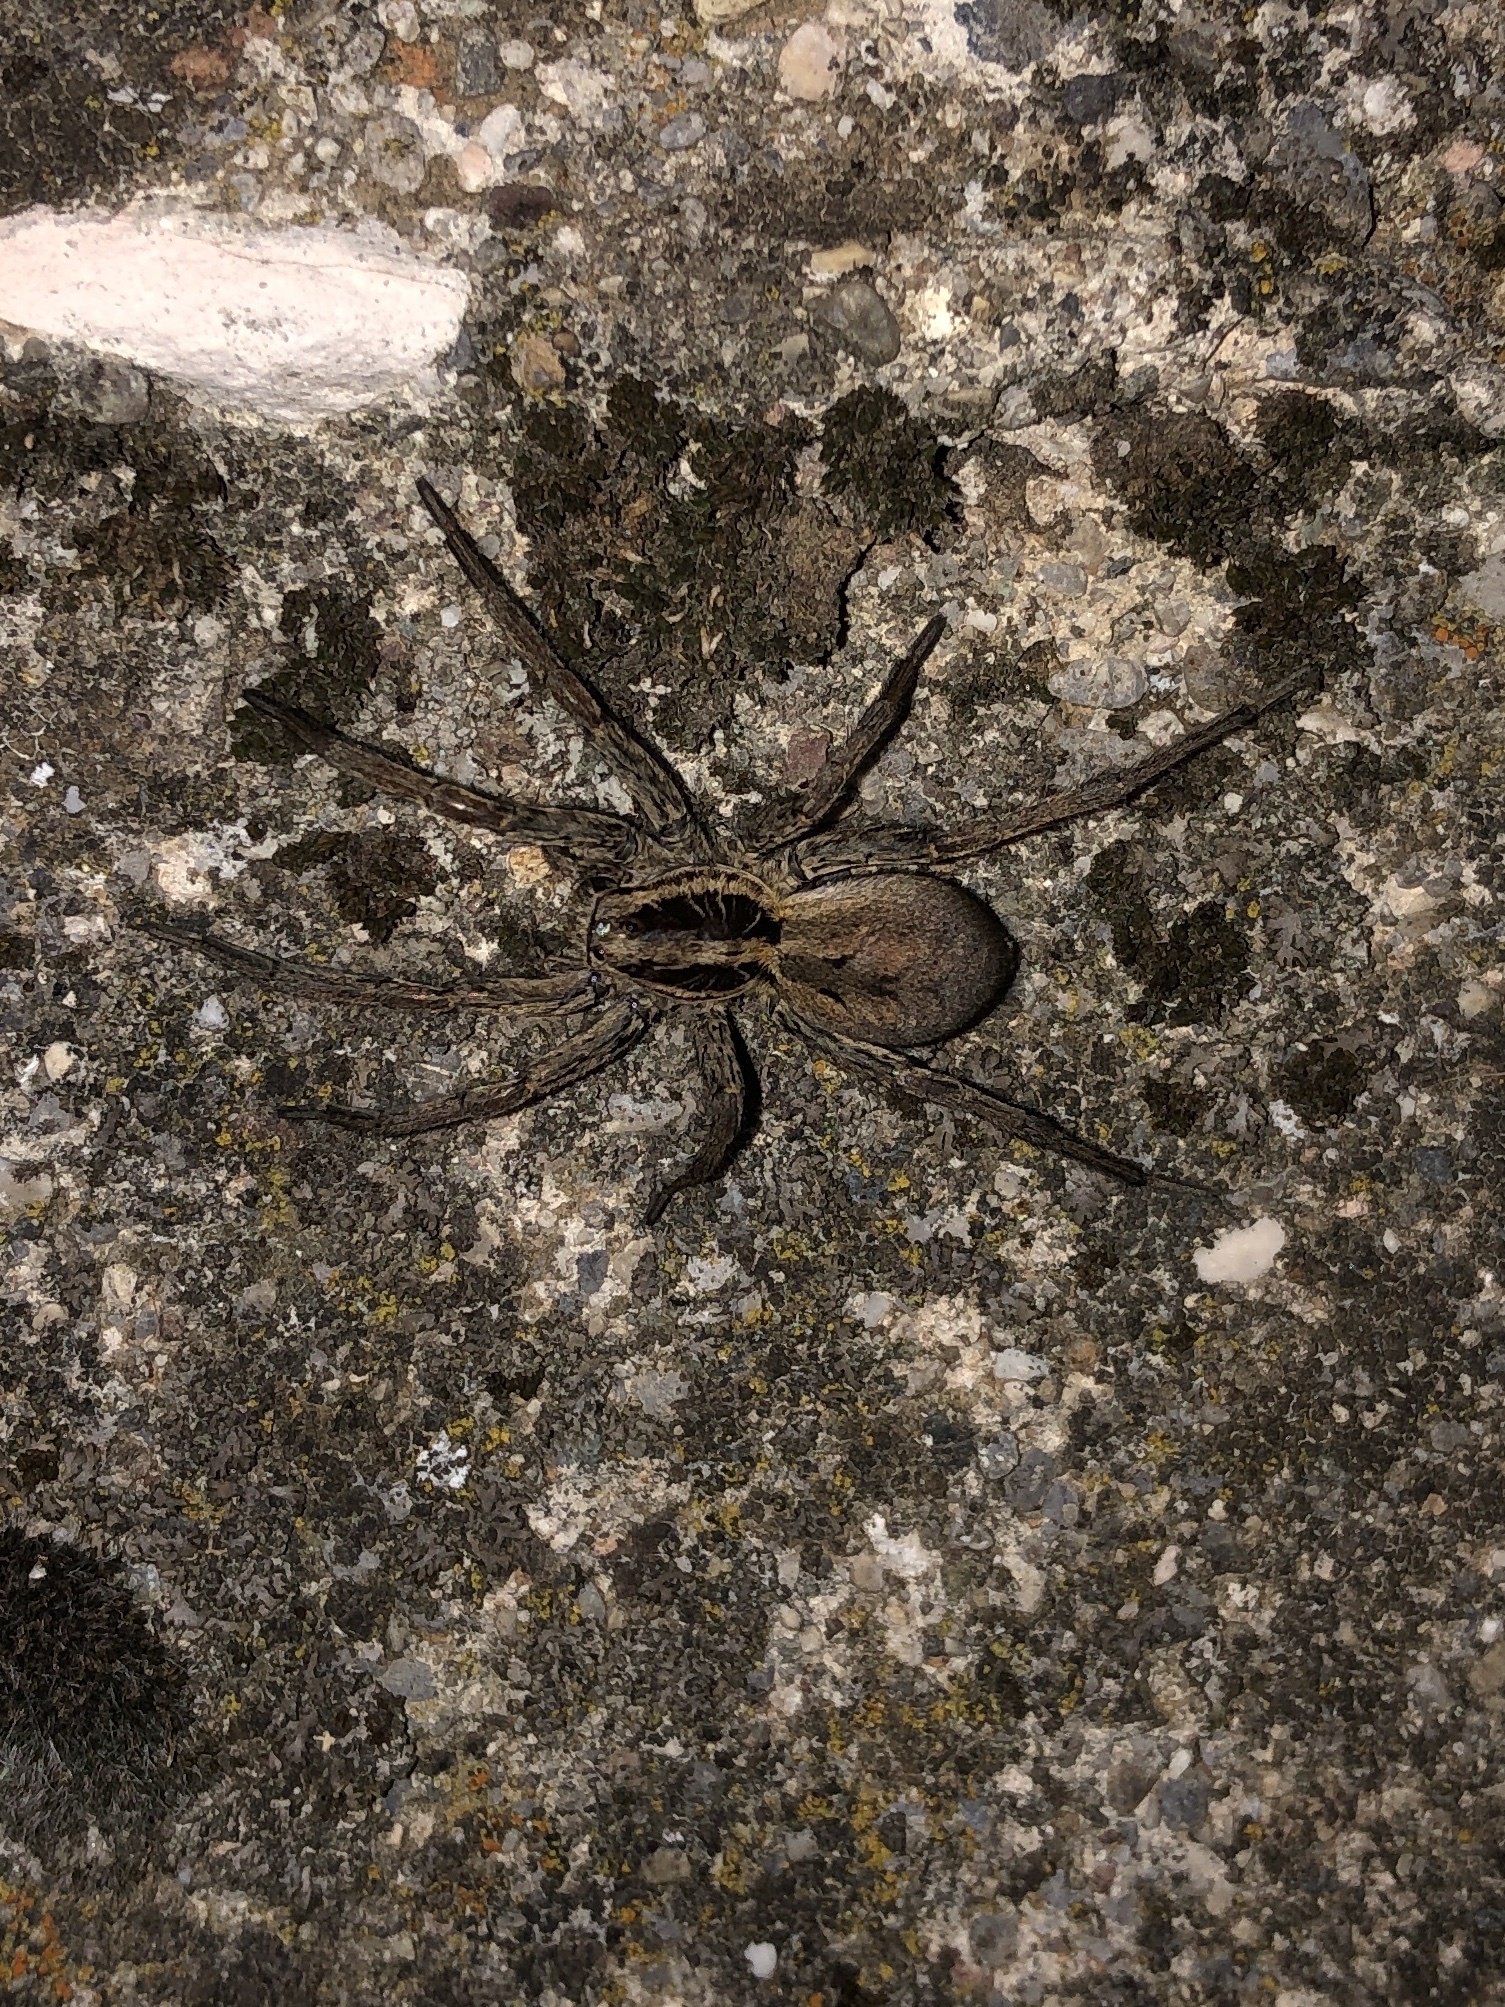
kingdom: Animalia
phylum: Arthropoda
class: Arachnida
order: Araneae
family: Lycosidae
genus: Hogna
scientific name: Hogna radiata
